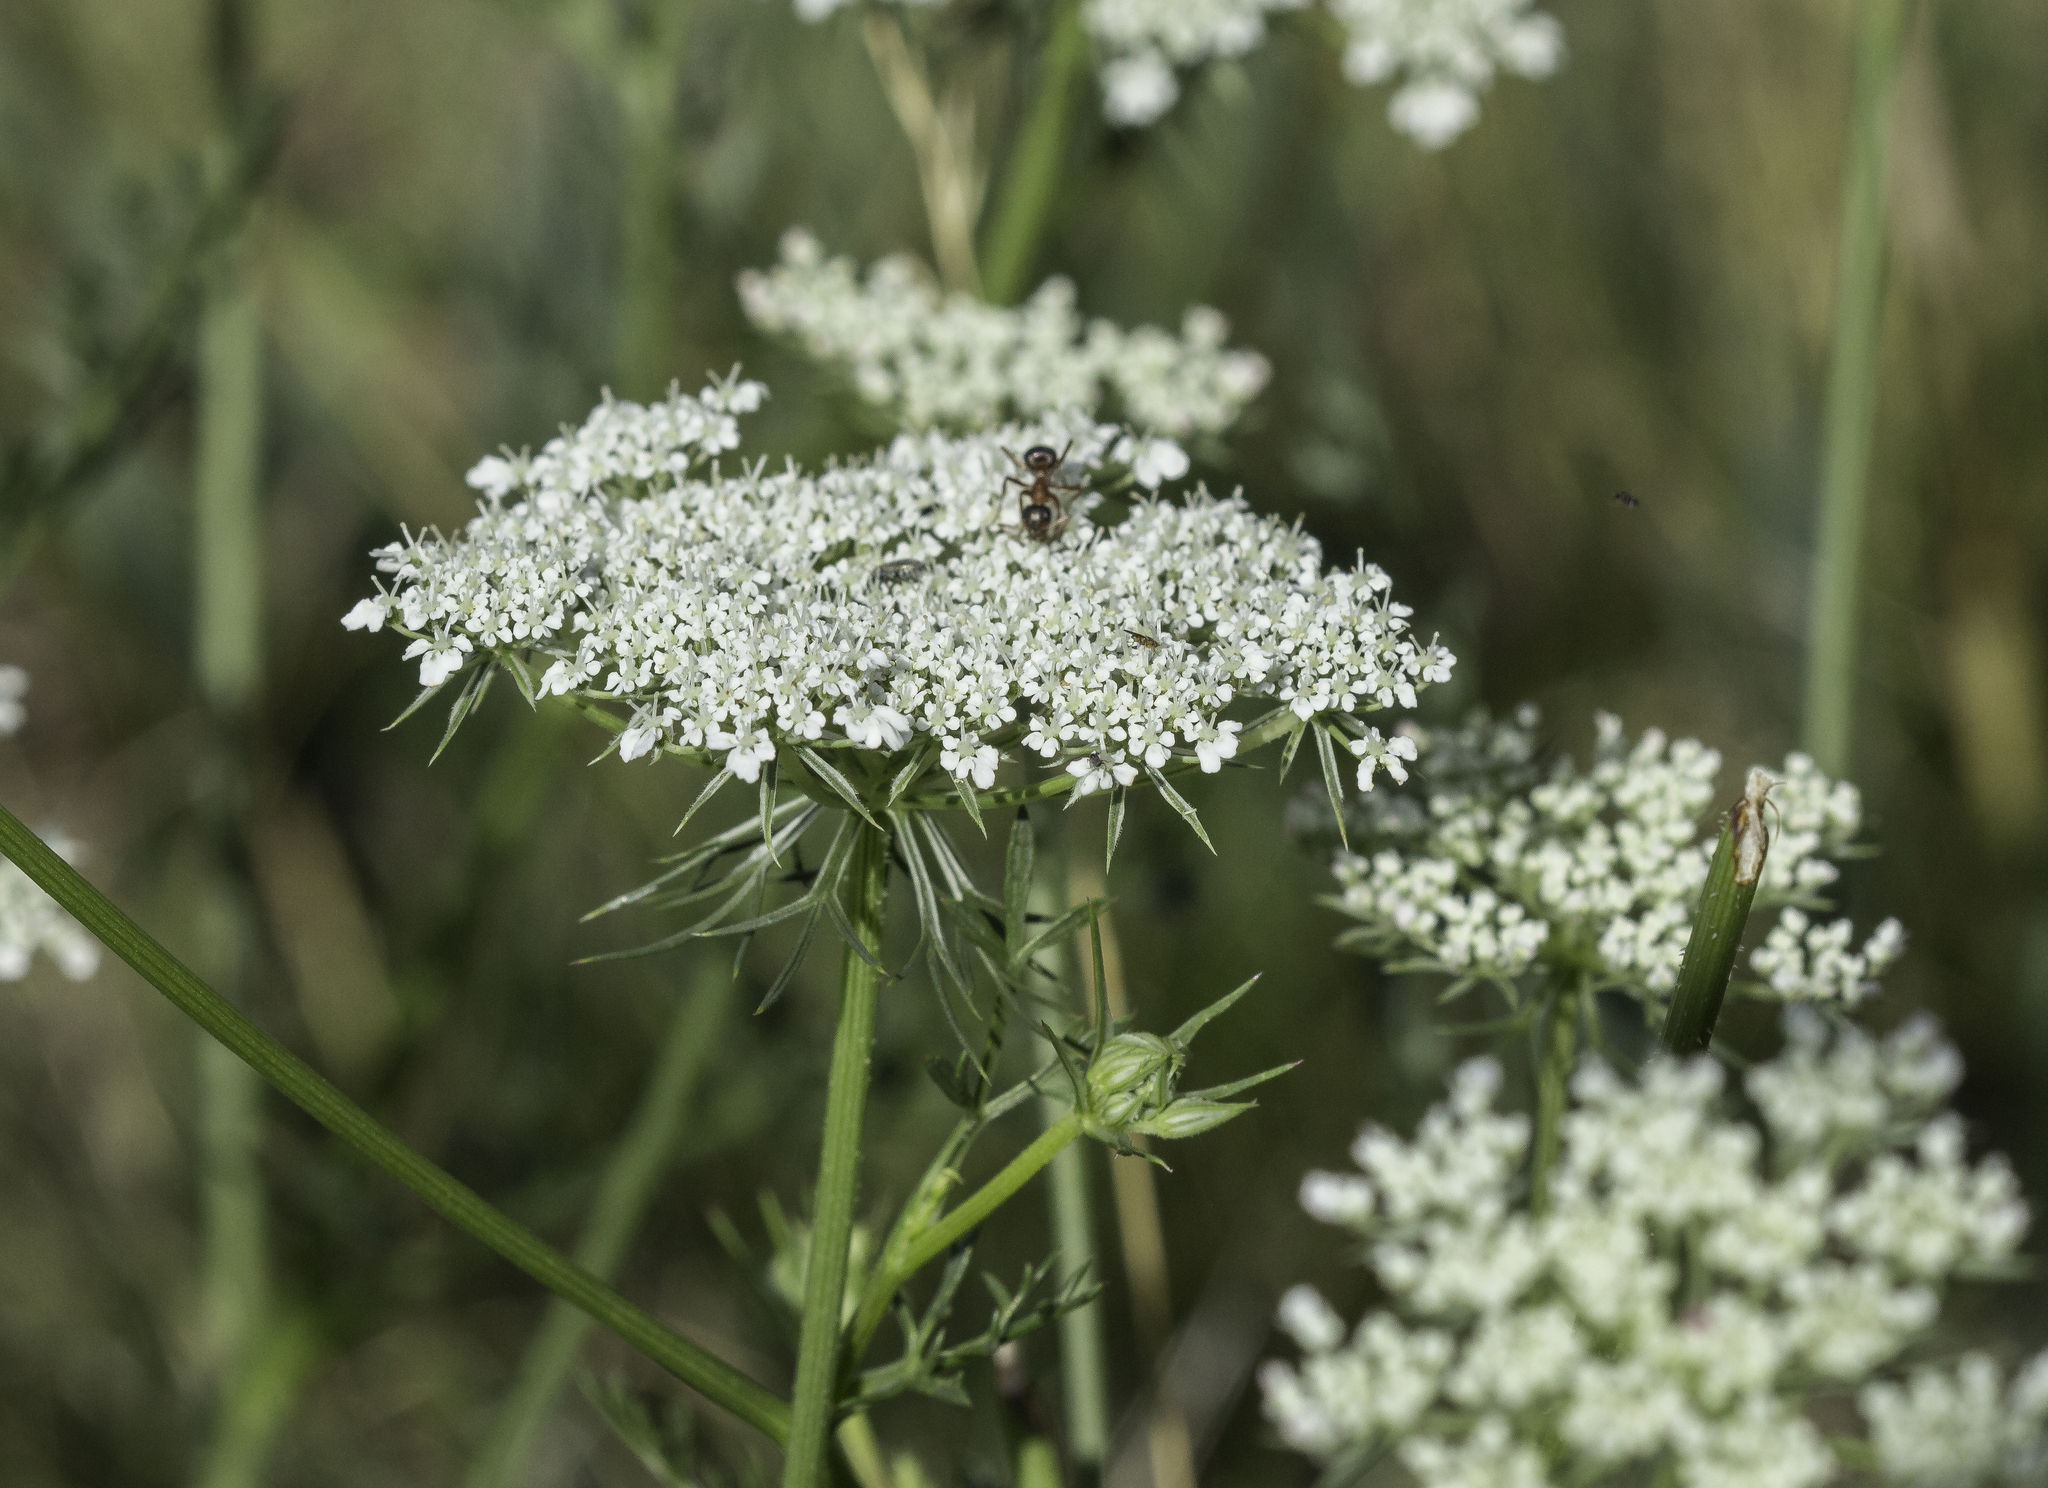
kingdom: Plantae
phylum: Tracheophyta
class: Magnoliopsida
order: Apiales
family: Apiaceae
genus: Daucus
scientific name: Daucus carota
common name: Wild carrot
